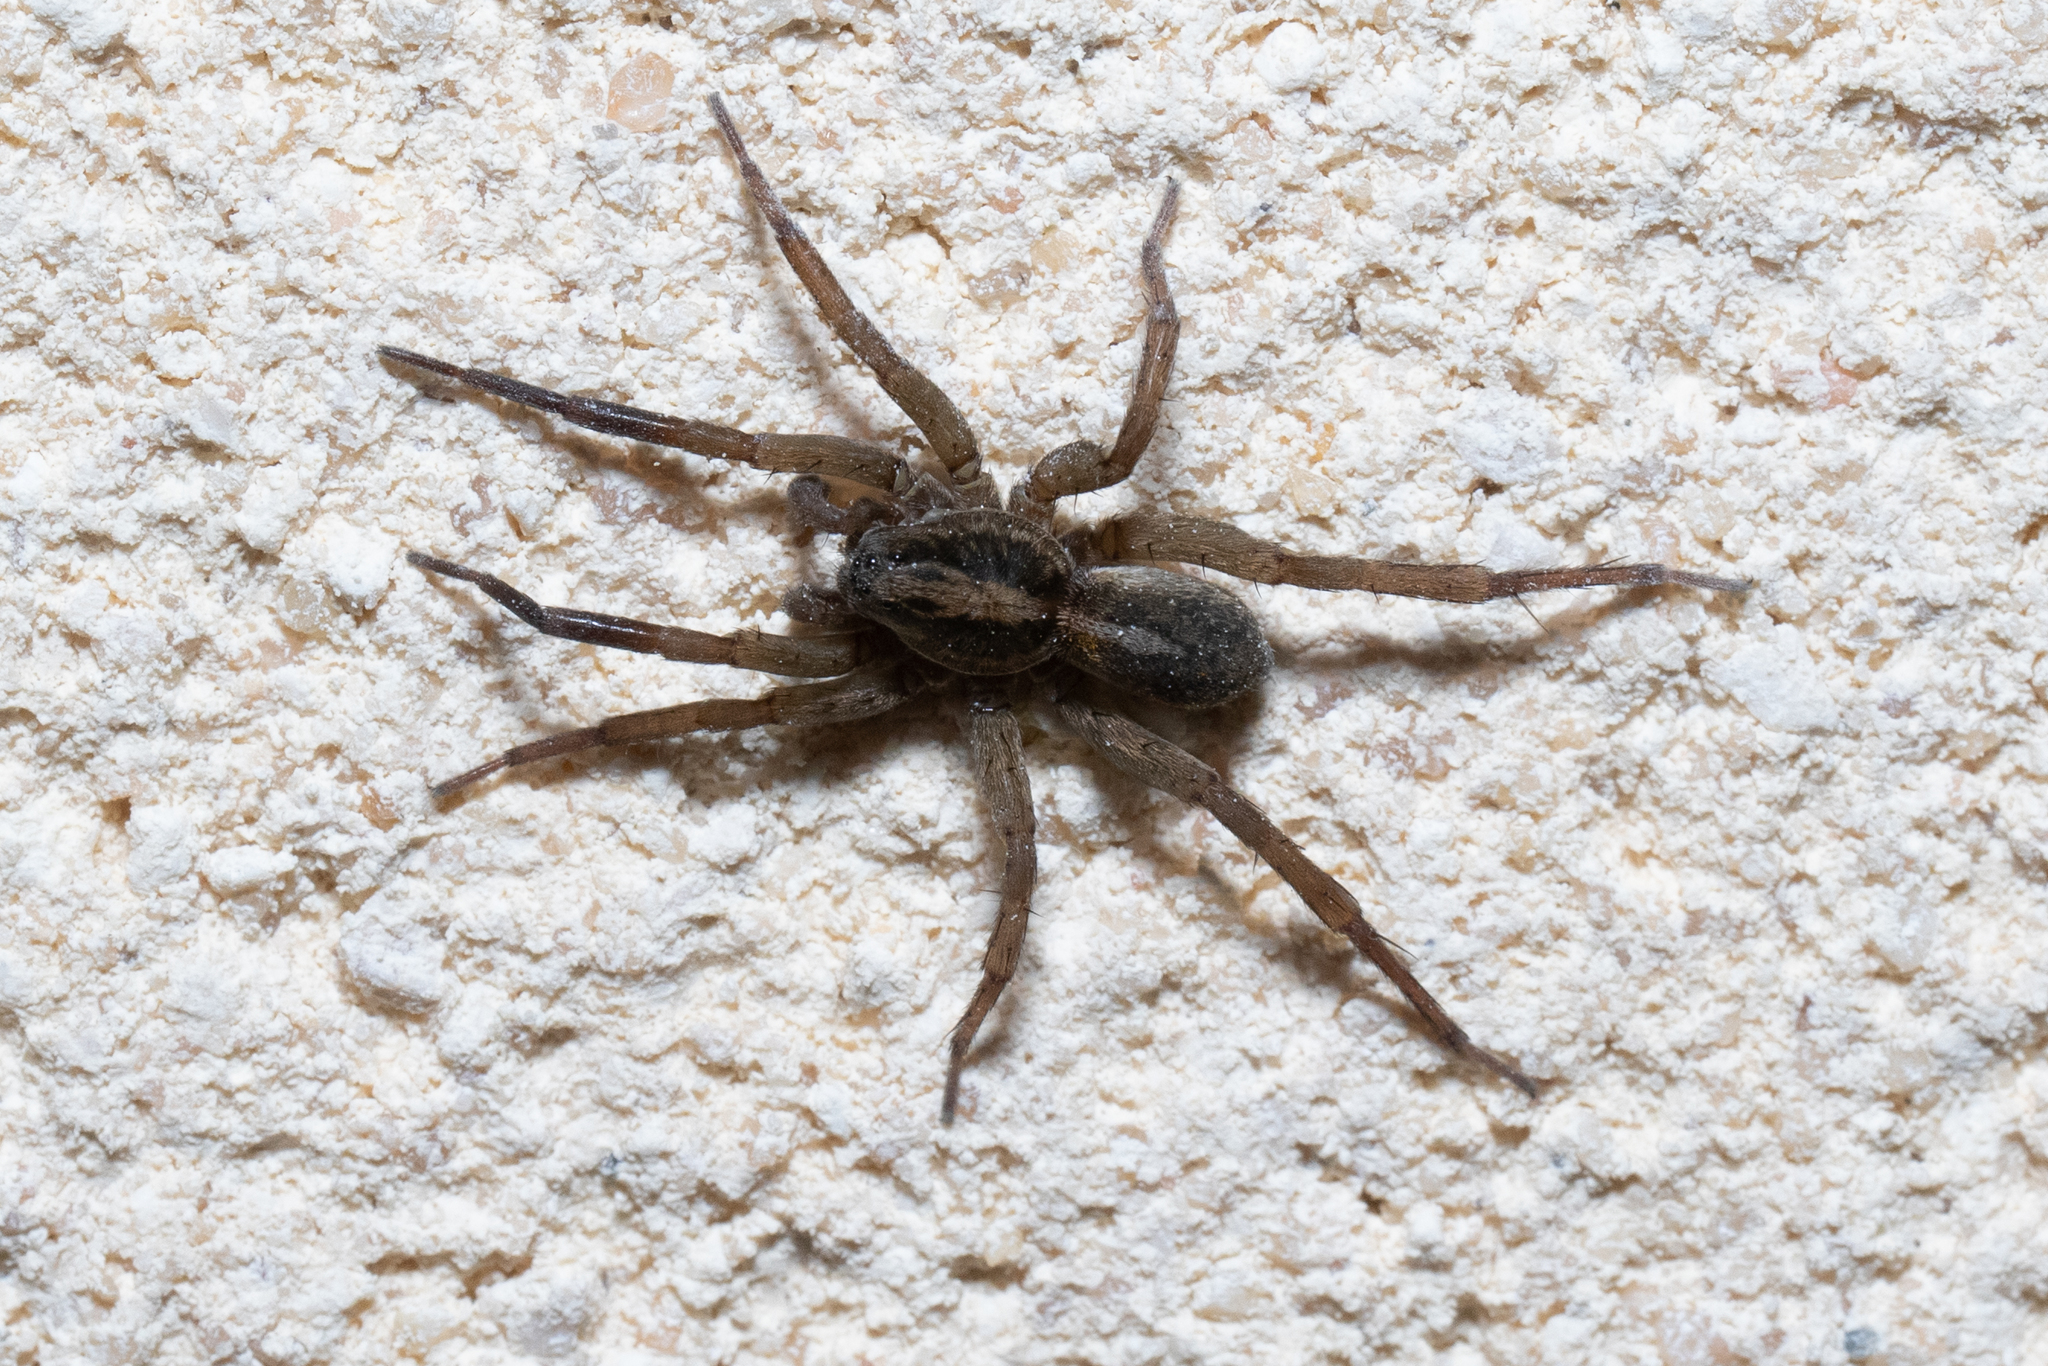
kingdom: Animalia
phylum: Arthropoda
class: Arachnida
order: Araneae
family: Lycosidae
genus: Trochosa
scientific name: Trochosa
